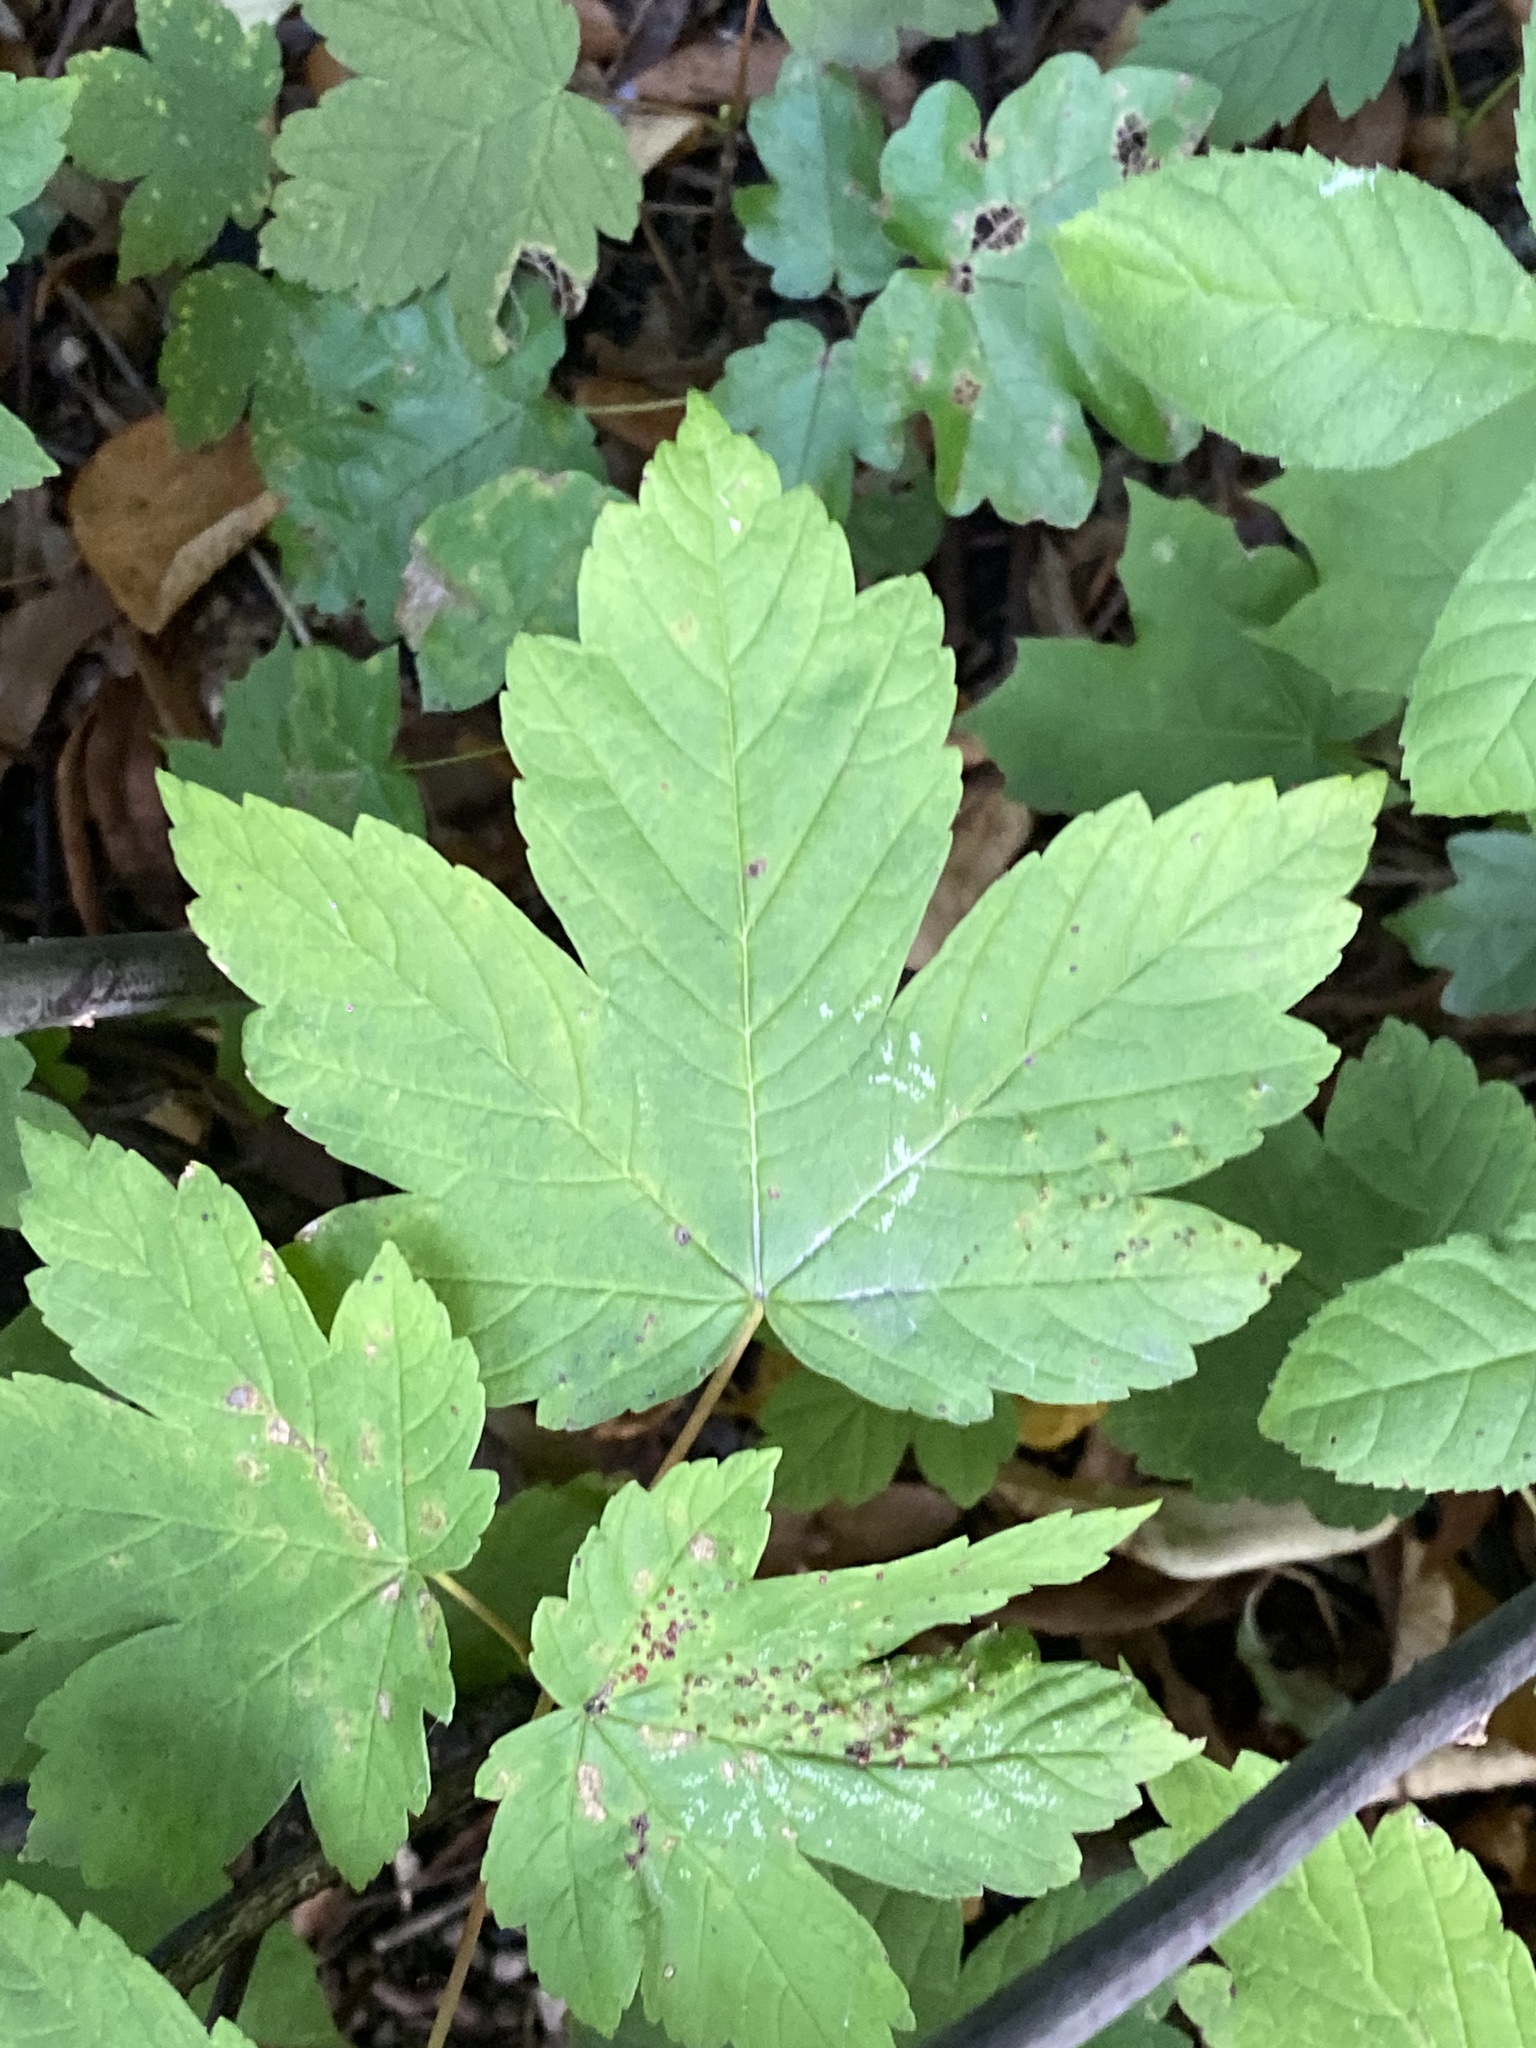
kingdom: Plantae
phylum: Tracheophyta
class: Magnoliopsida
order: Sapindales
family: Sapindaceae
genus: Acer
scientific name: Acer pseudoplatanus
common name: Sycamore
